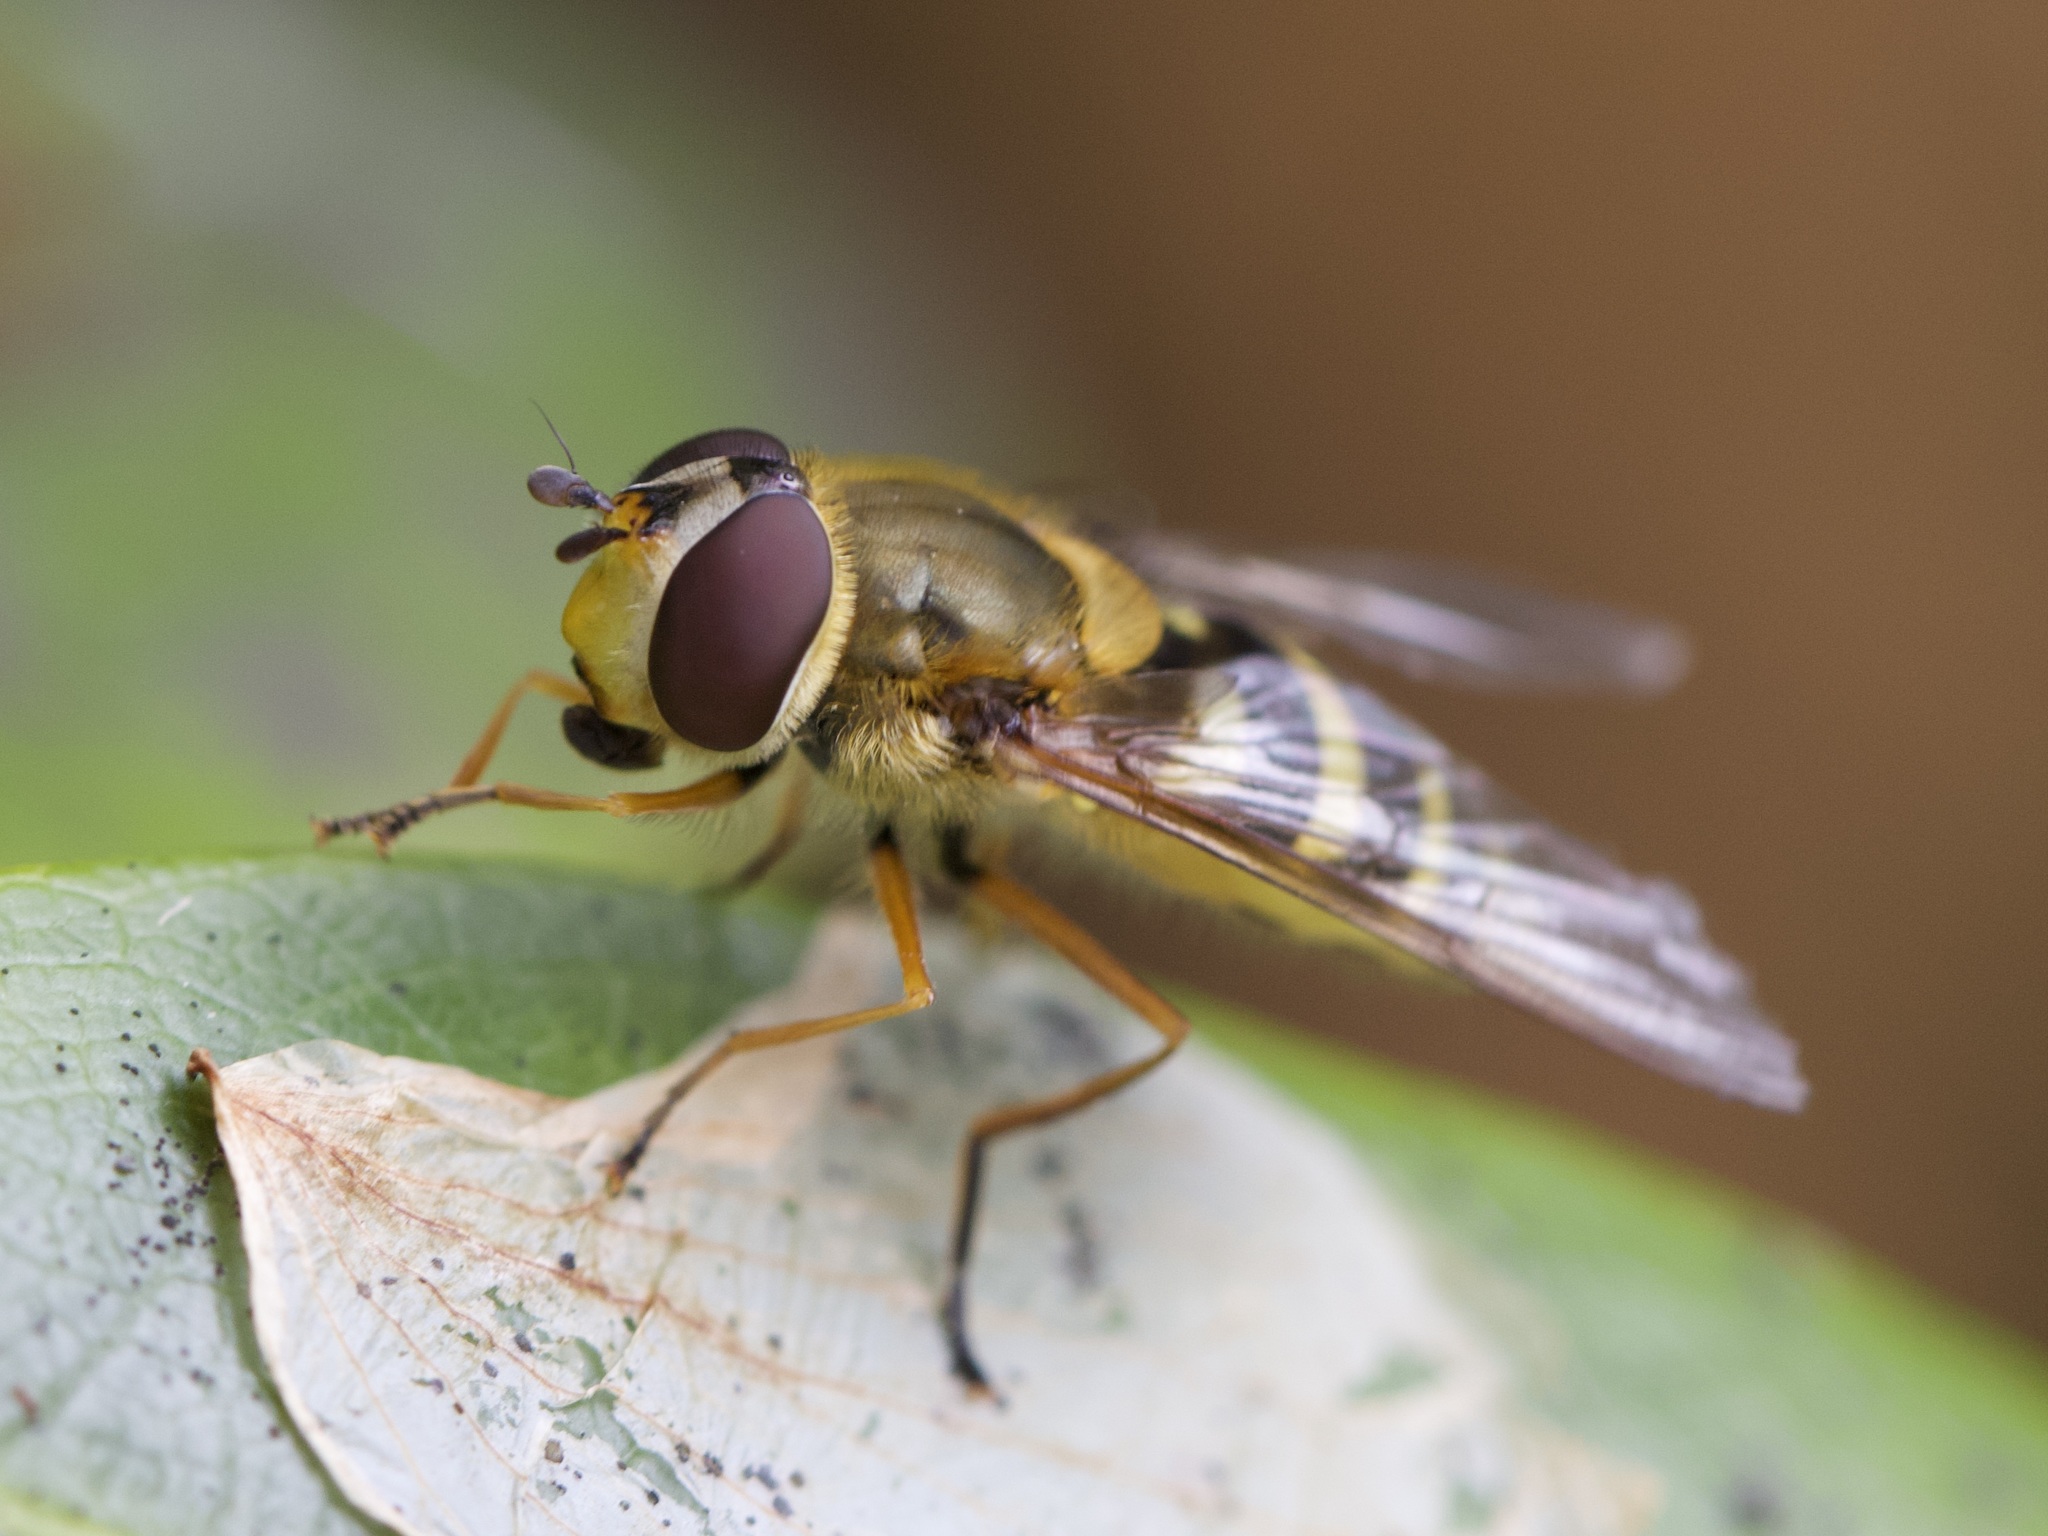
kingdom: Animalia
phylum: Arthropoda
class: Insecta
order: Diptera
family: Syrphidae
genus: Syrphus
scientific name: Syrphus ribesii
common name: Common flower fly
